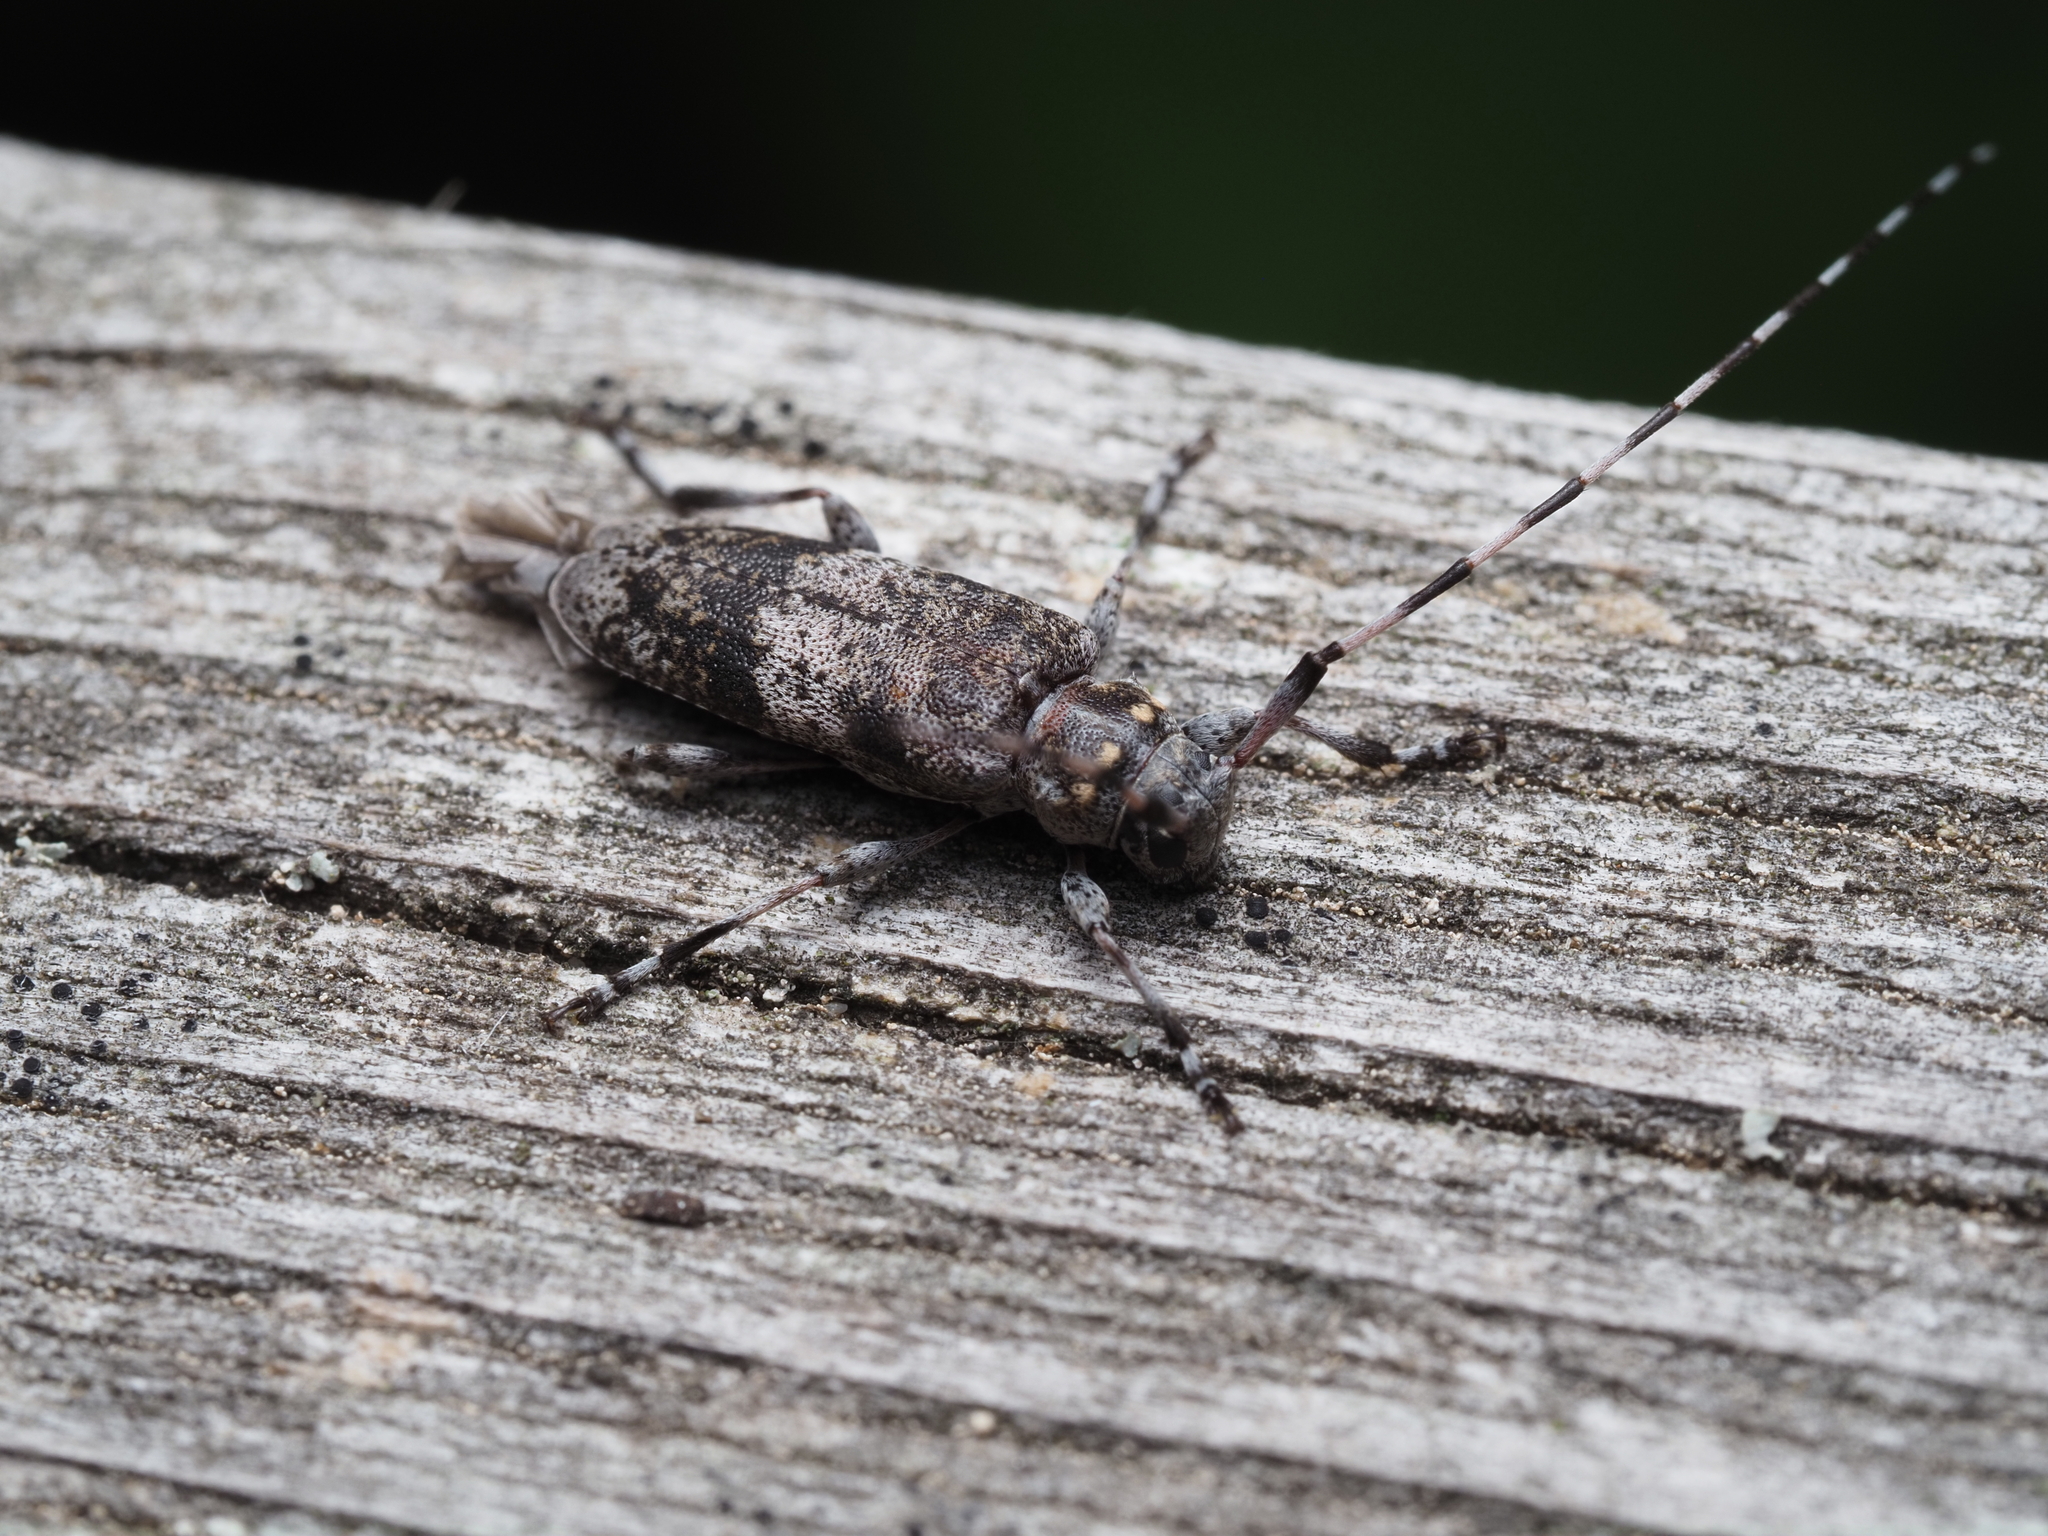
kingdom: Animalia
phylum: Arthropoda
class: Insecta
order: Coleoptera
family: Cerambycidae
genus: Acanthocinus
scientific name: Acanthocinus griseus
